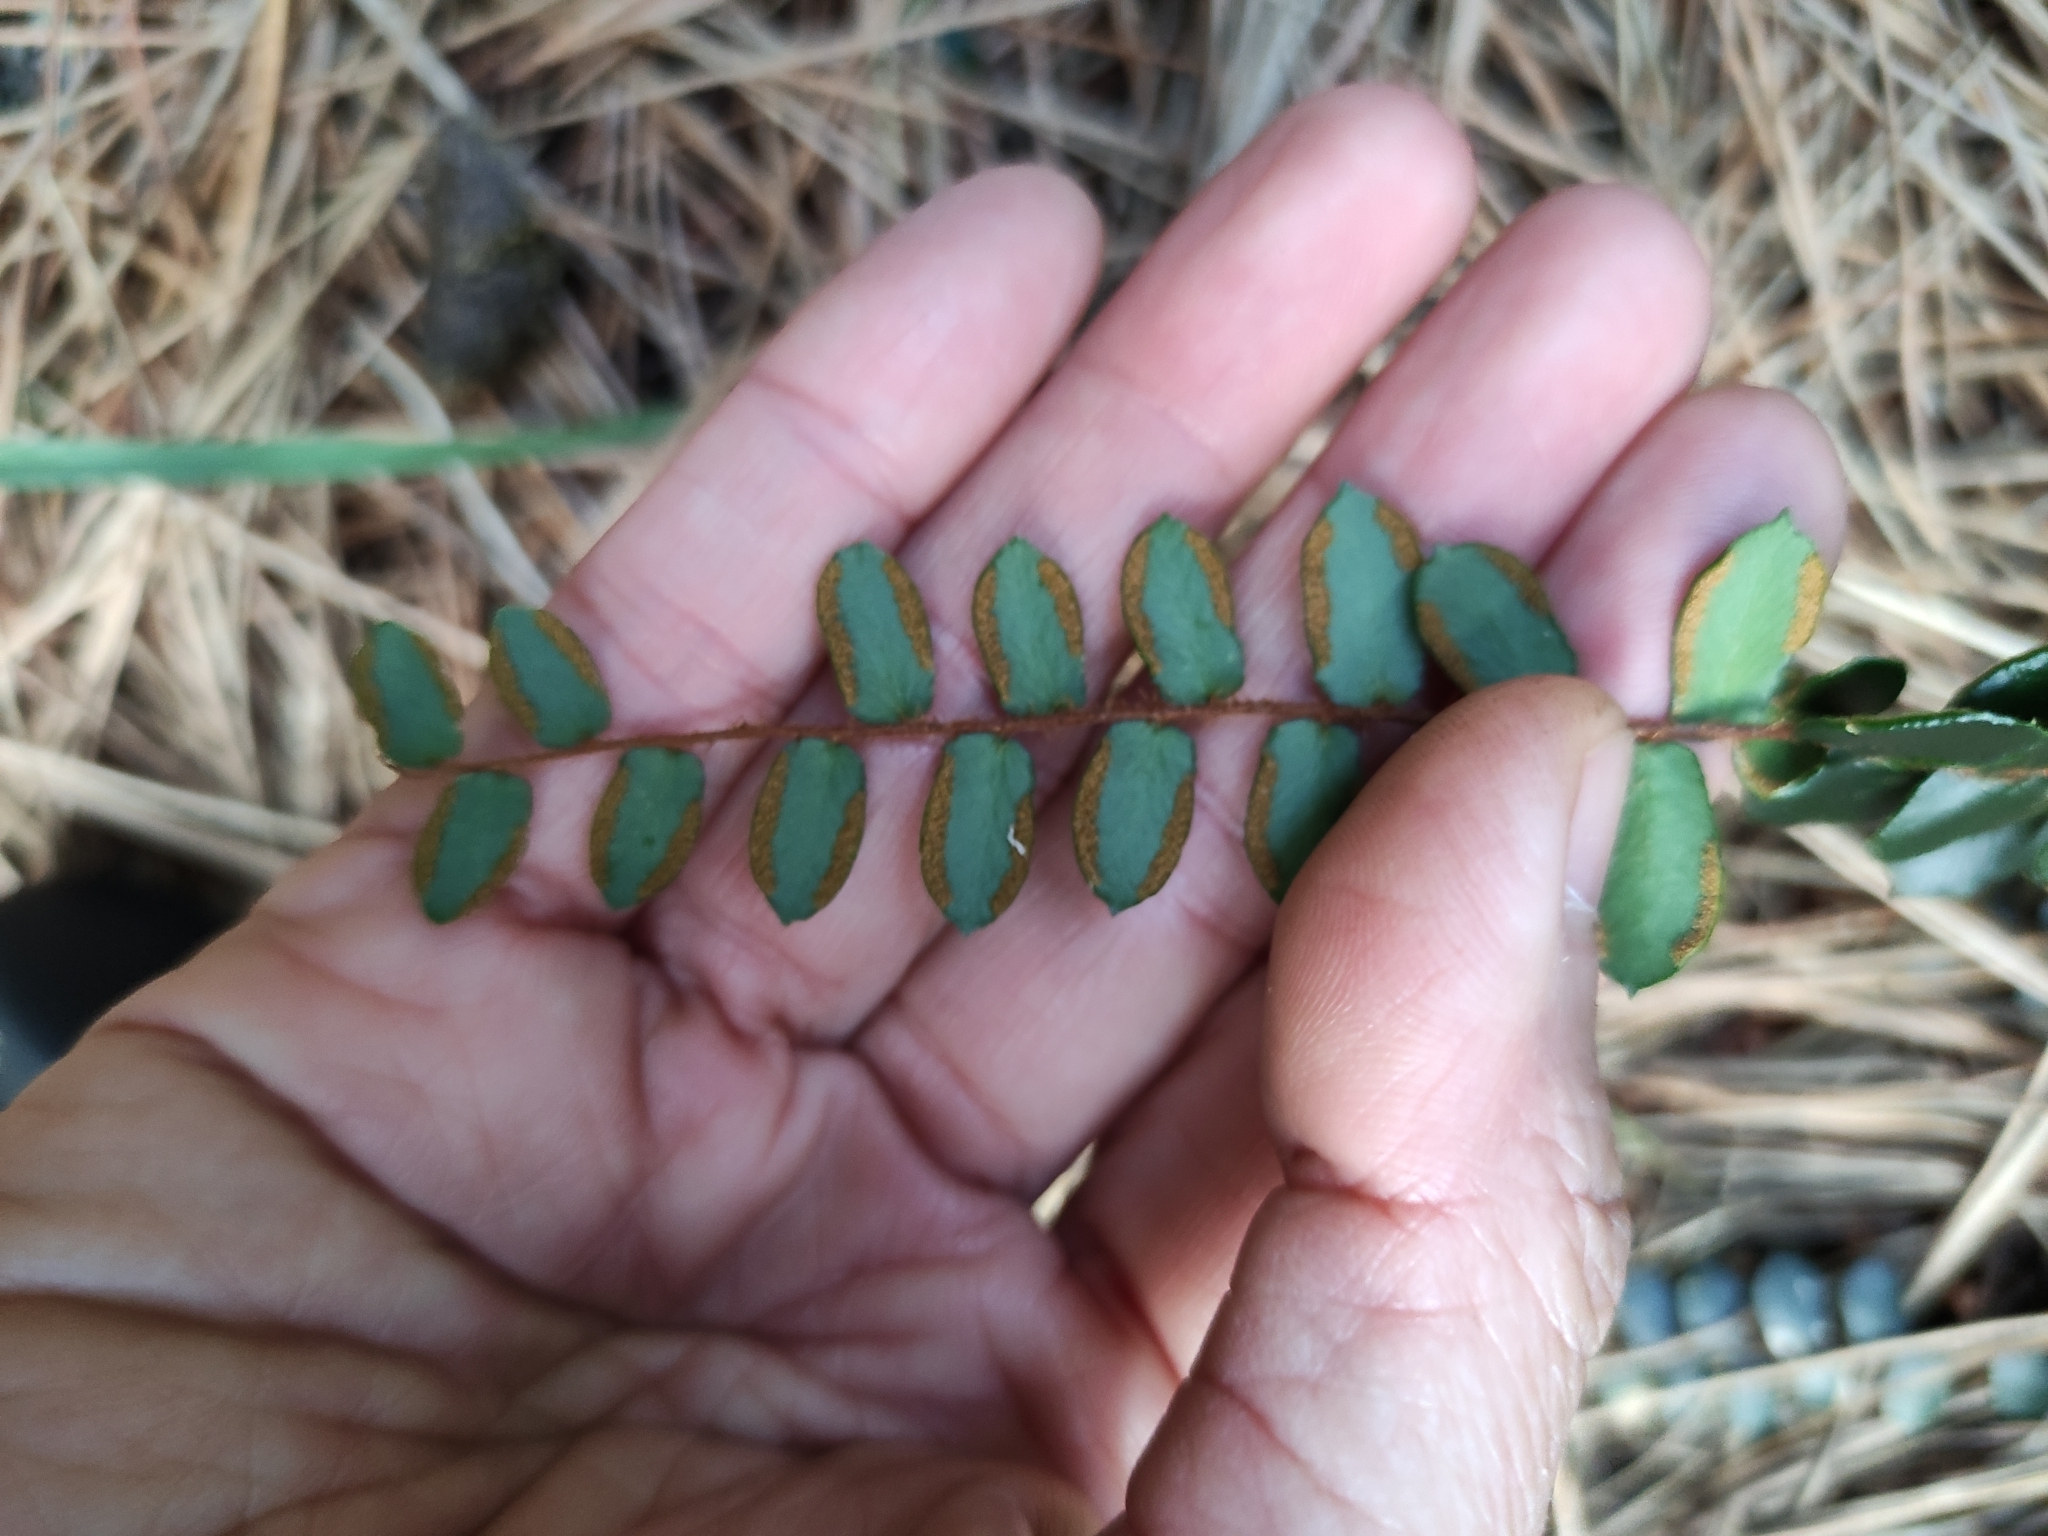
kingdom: Plantae
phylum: Tracheophyta
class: Polypodiopsida
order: Polypodiales
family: Pteridaceae
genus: Pellaea
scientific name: Pellaea rotundifolia
